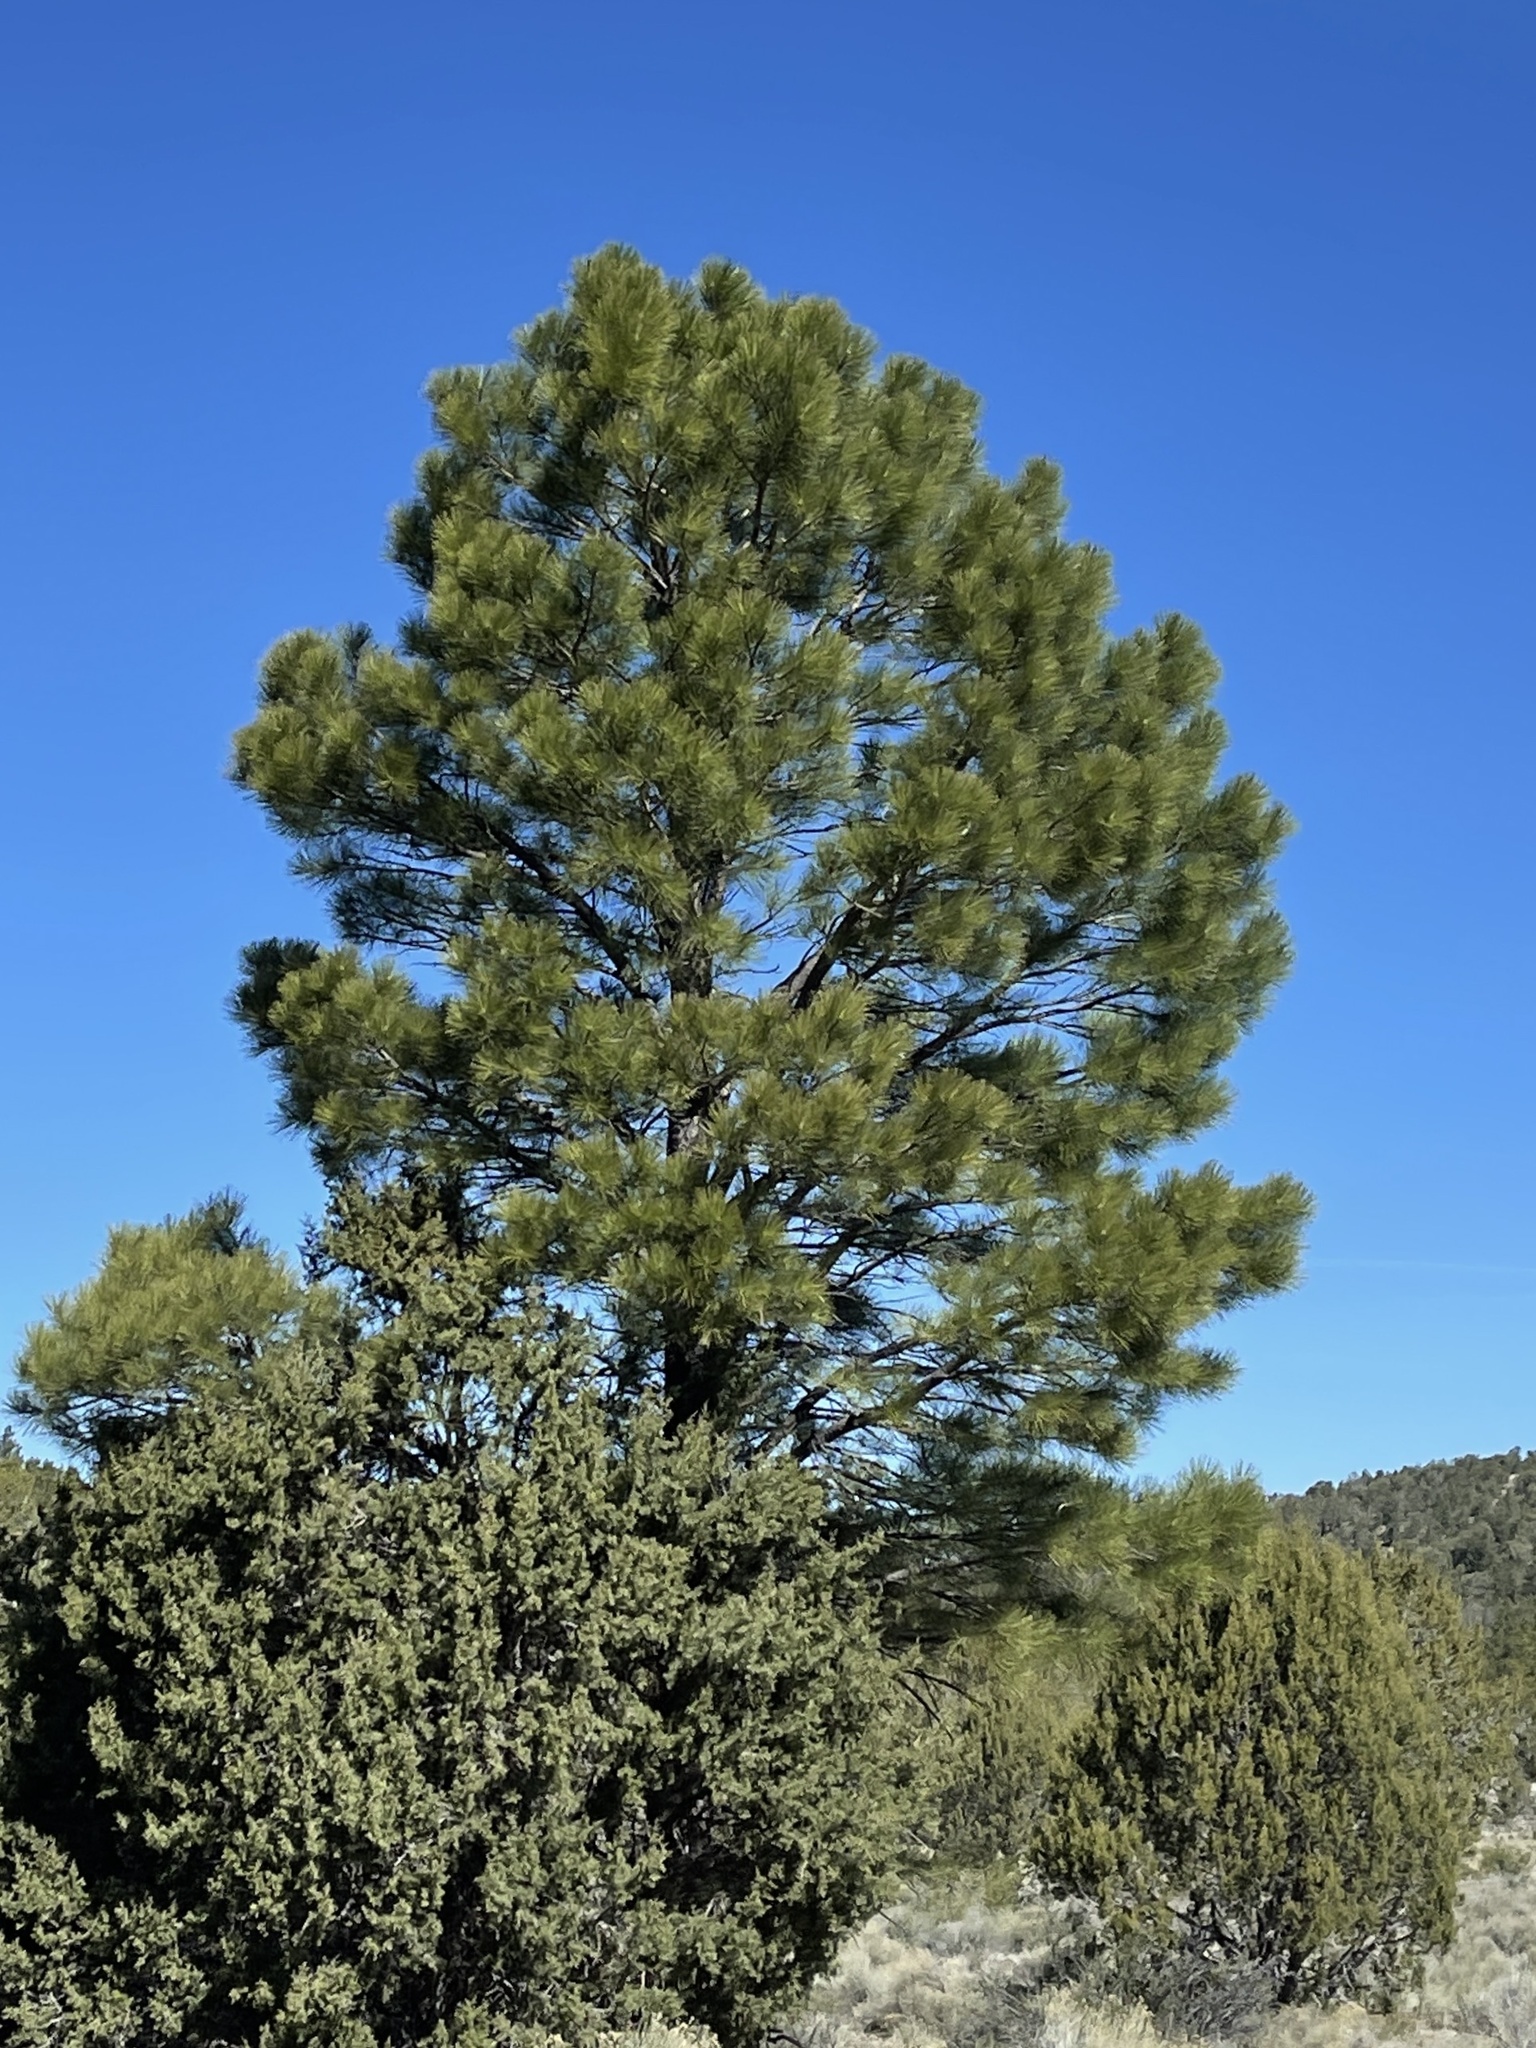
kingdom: Plantae
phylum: Tracheophyta
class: Pinopsida
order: Pinales
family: Pinaceae
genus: Pinus
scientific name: Pinus ponderosa
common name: Western yellow-pine
